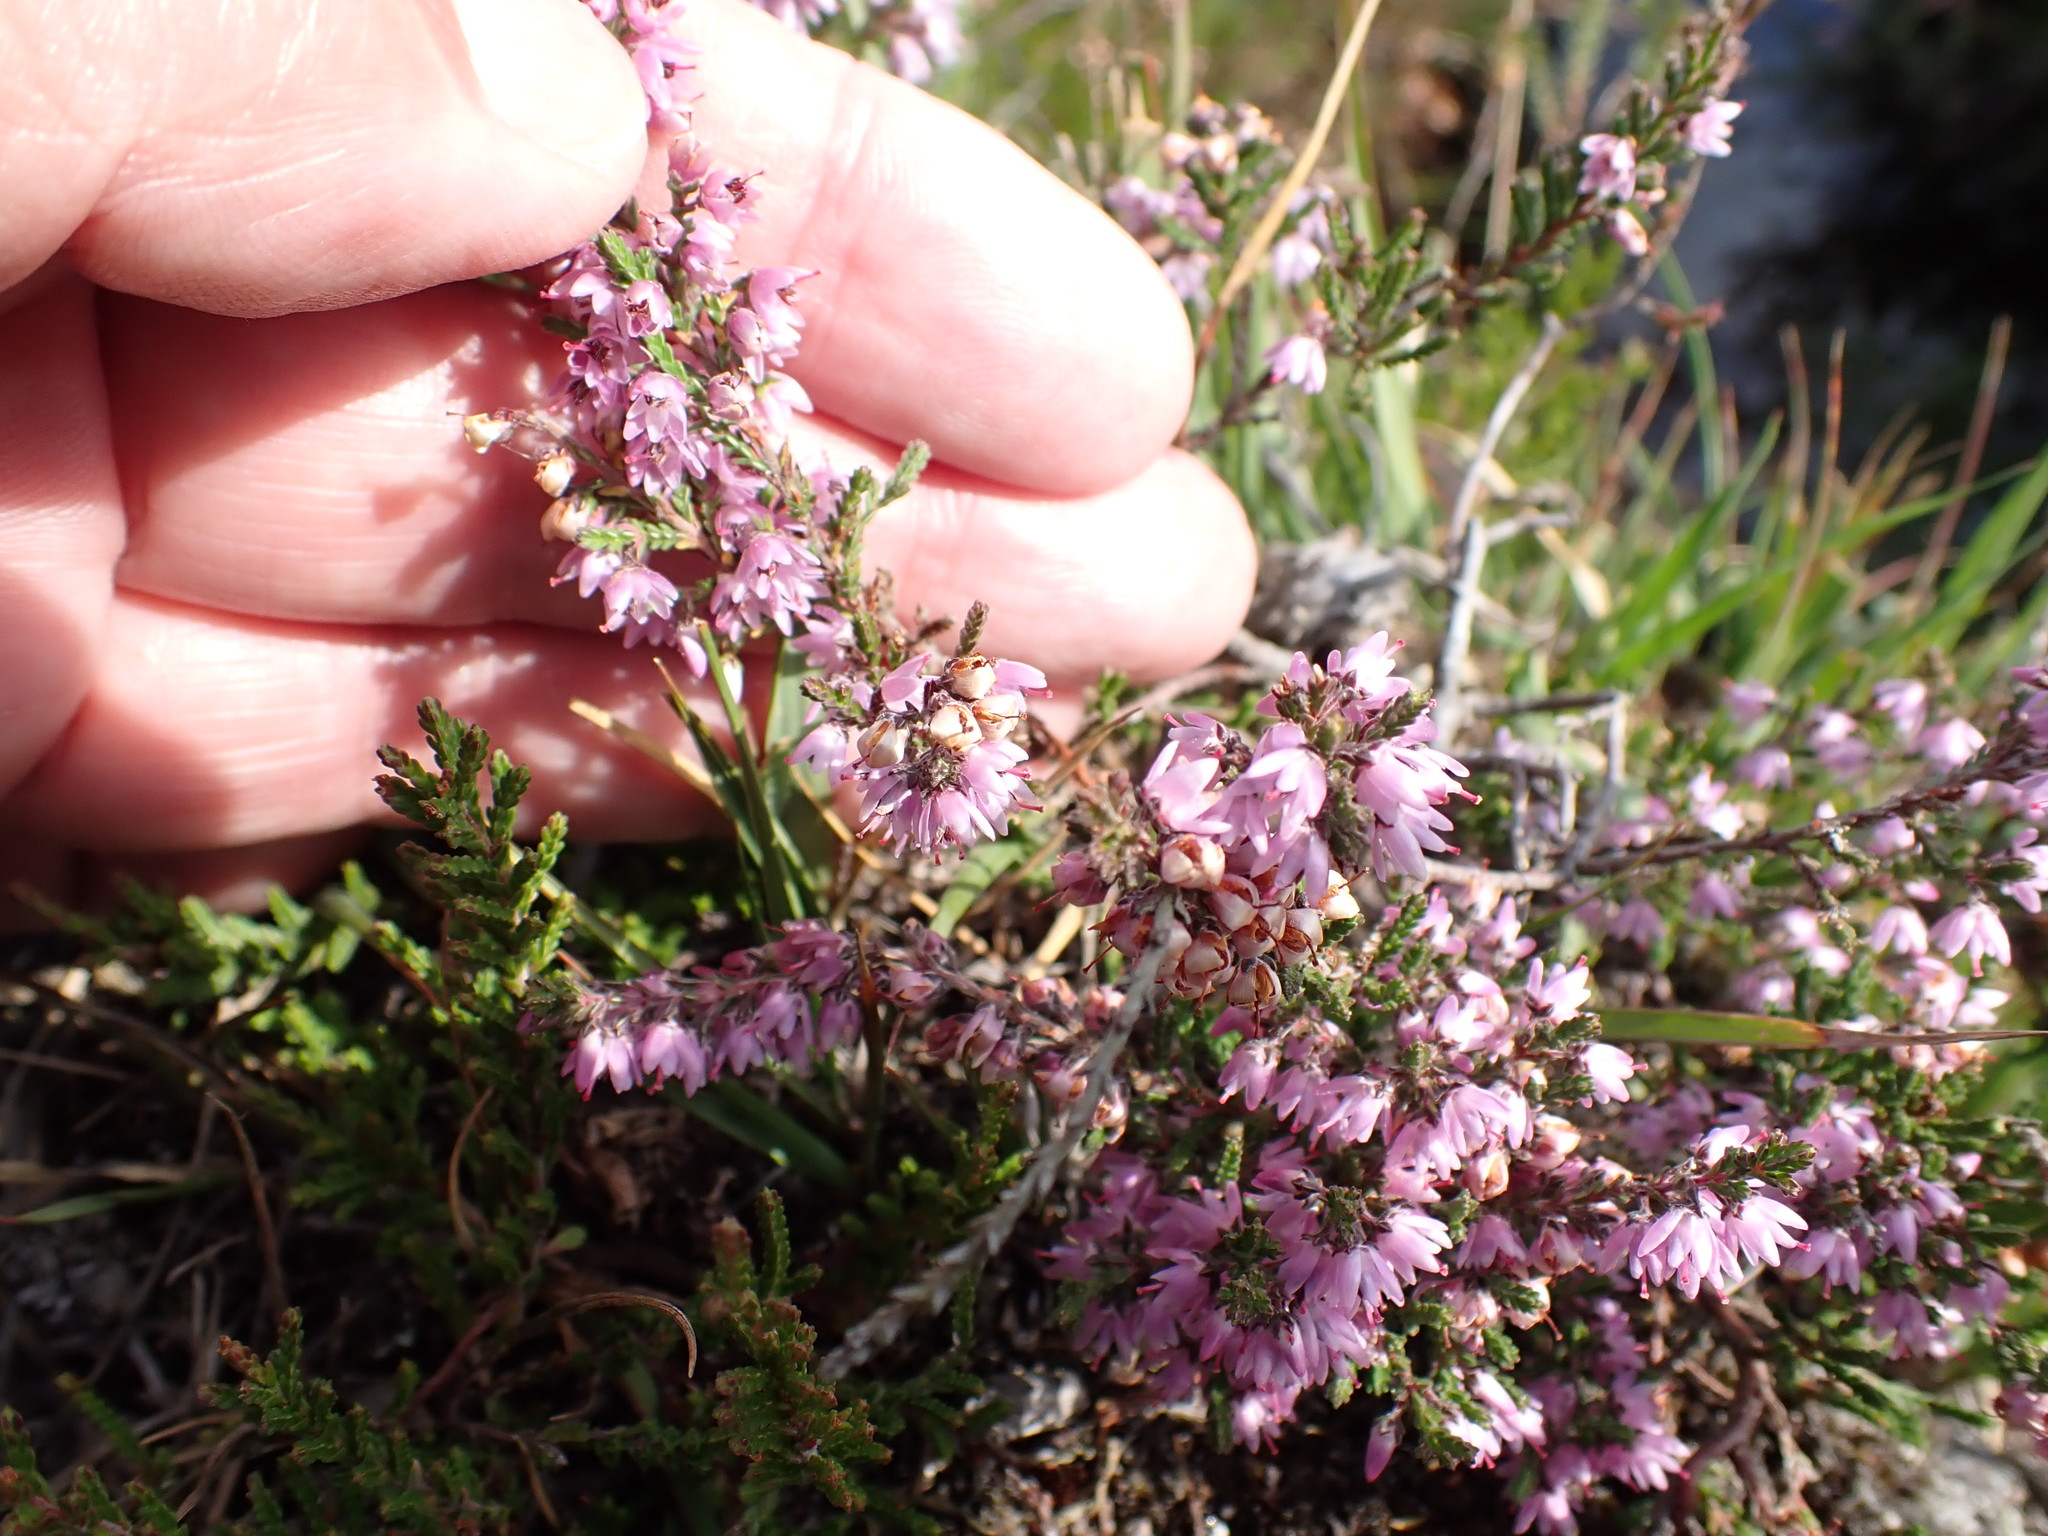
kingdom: Plantae
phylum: Tracheophyta
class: Magnoliopsida
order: Ericales
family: Ericaceae
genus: Calluna
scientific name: Calluna vulgaris
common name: Heather
